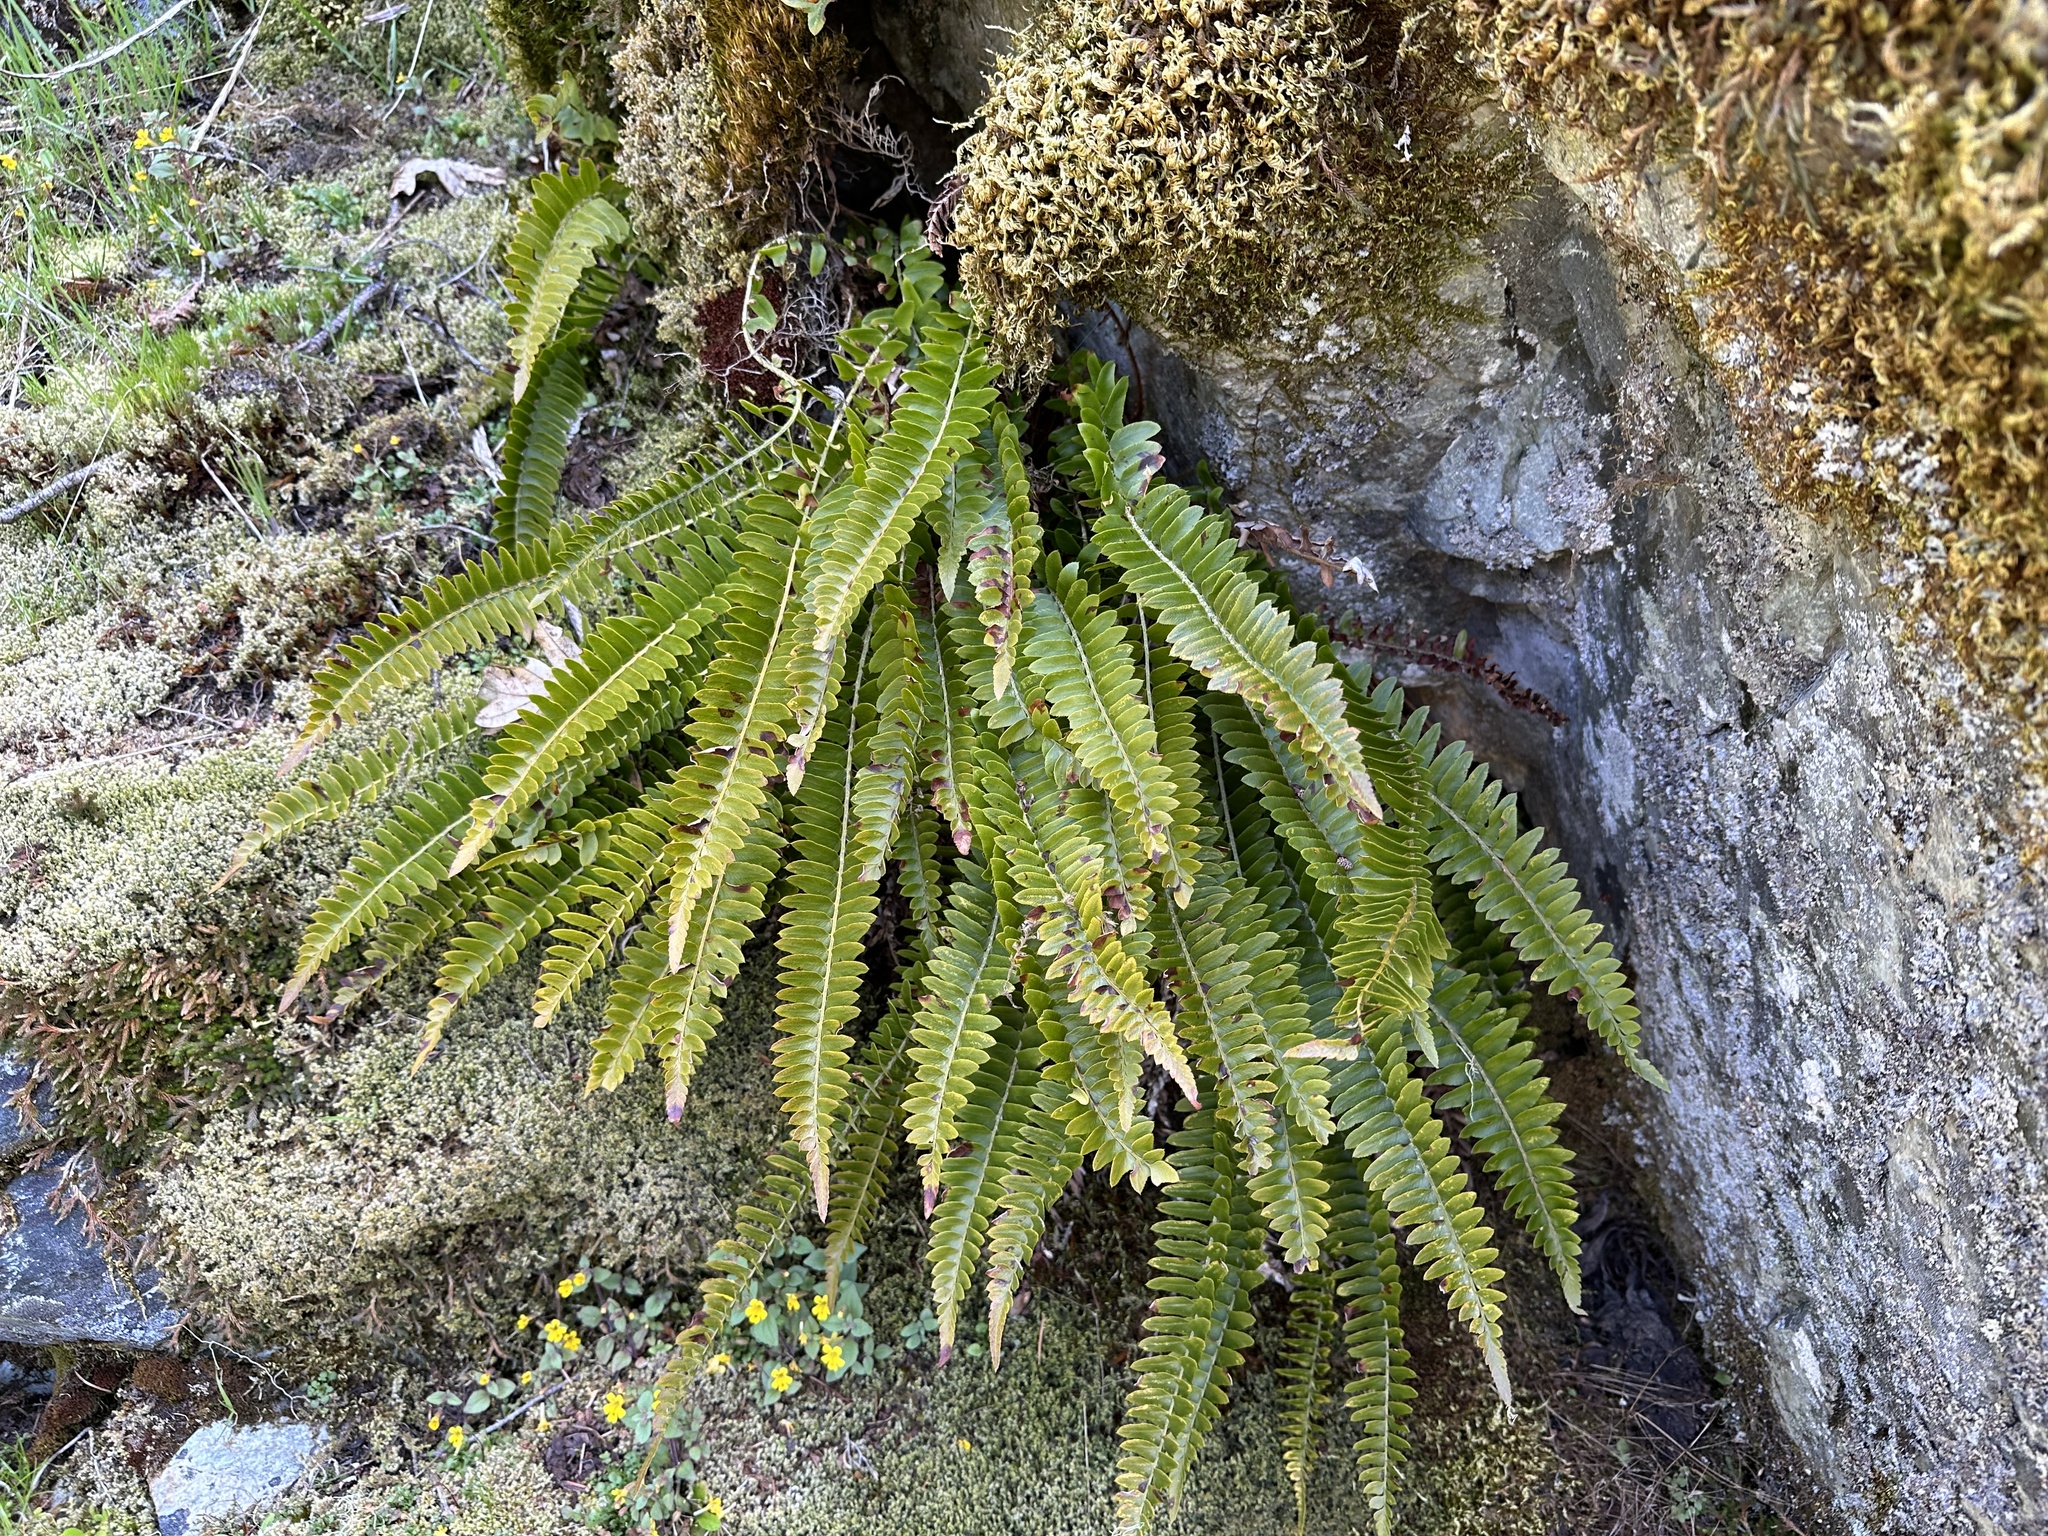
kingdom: Plantae
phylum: Tracheophyta
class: Polypodiopsida
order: Polypodiales
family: Dryopteridaceae
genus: Polystichum
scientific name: Polystichum imbricans
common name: Dwarf western sword fern
